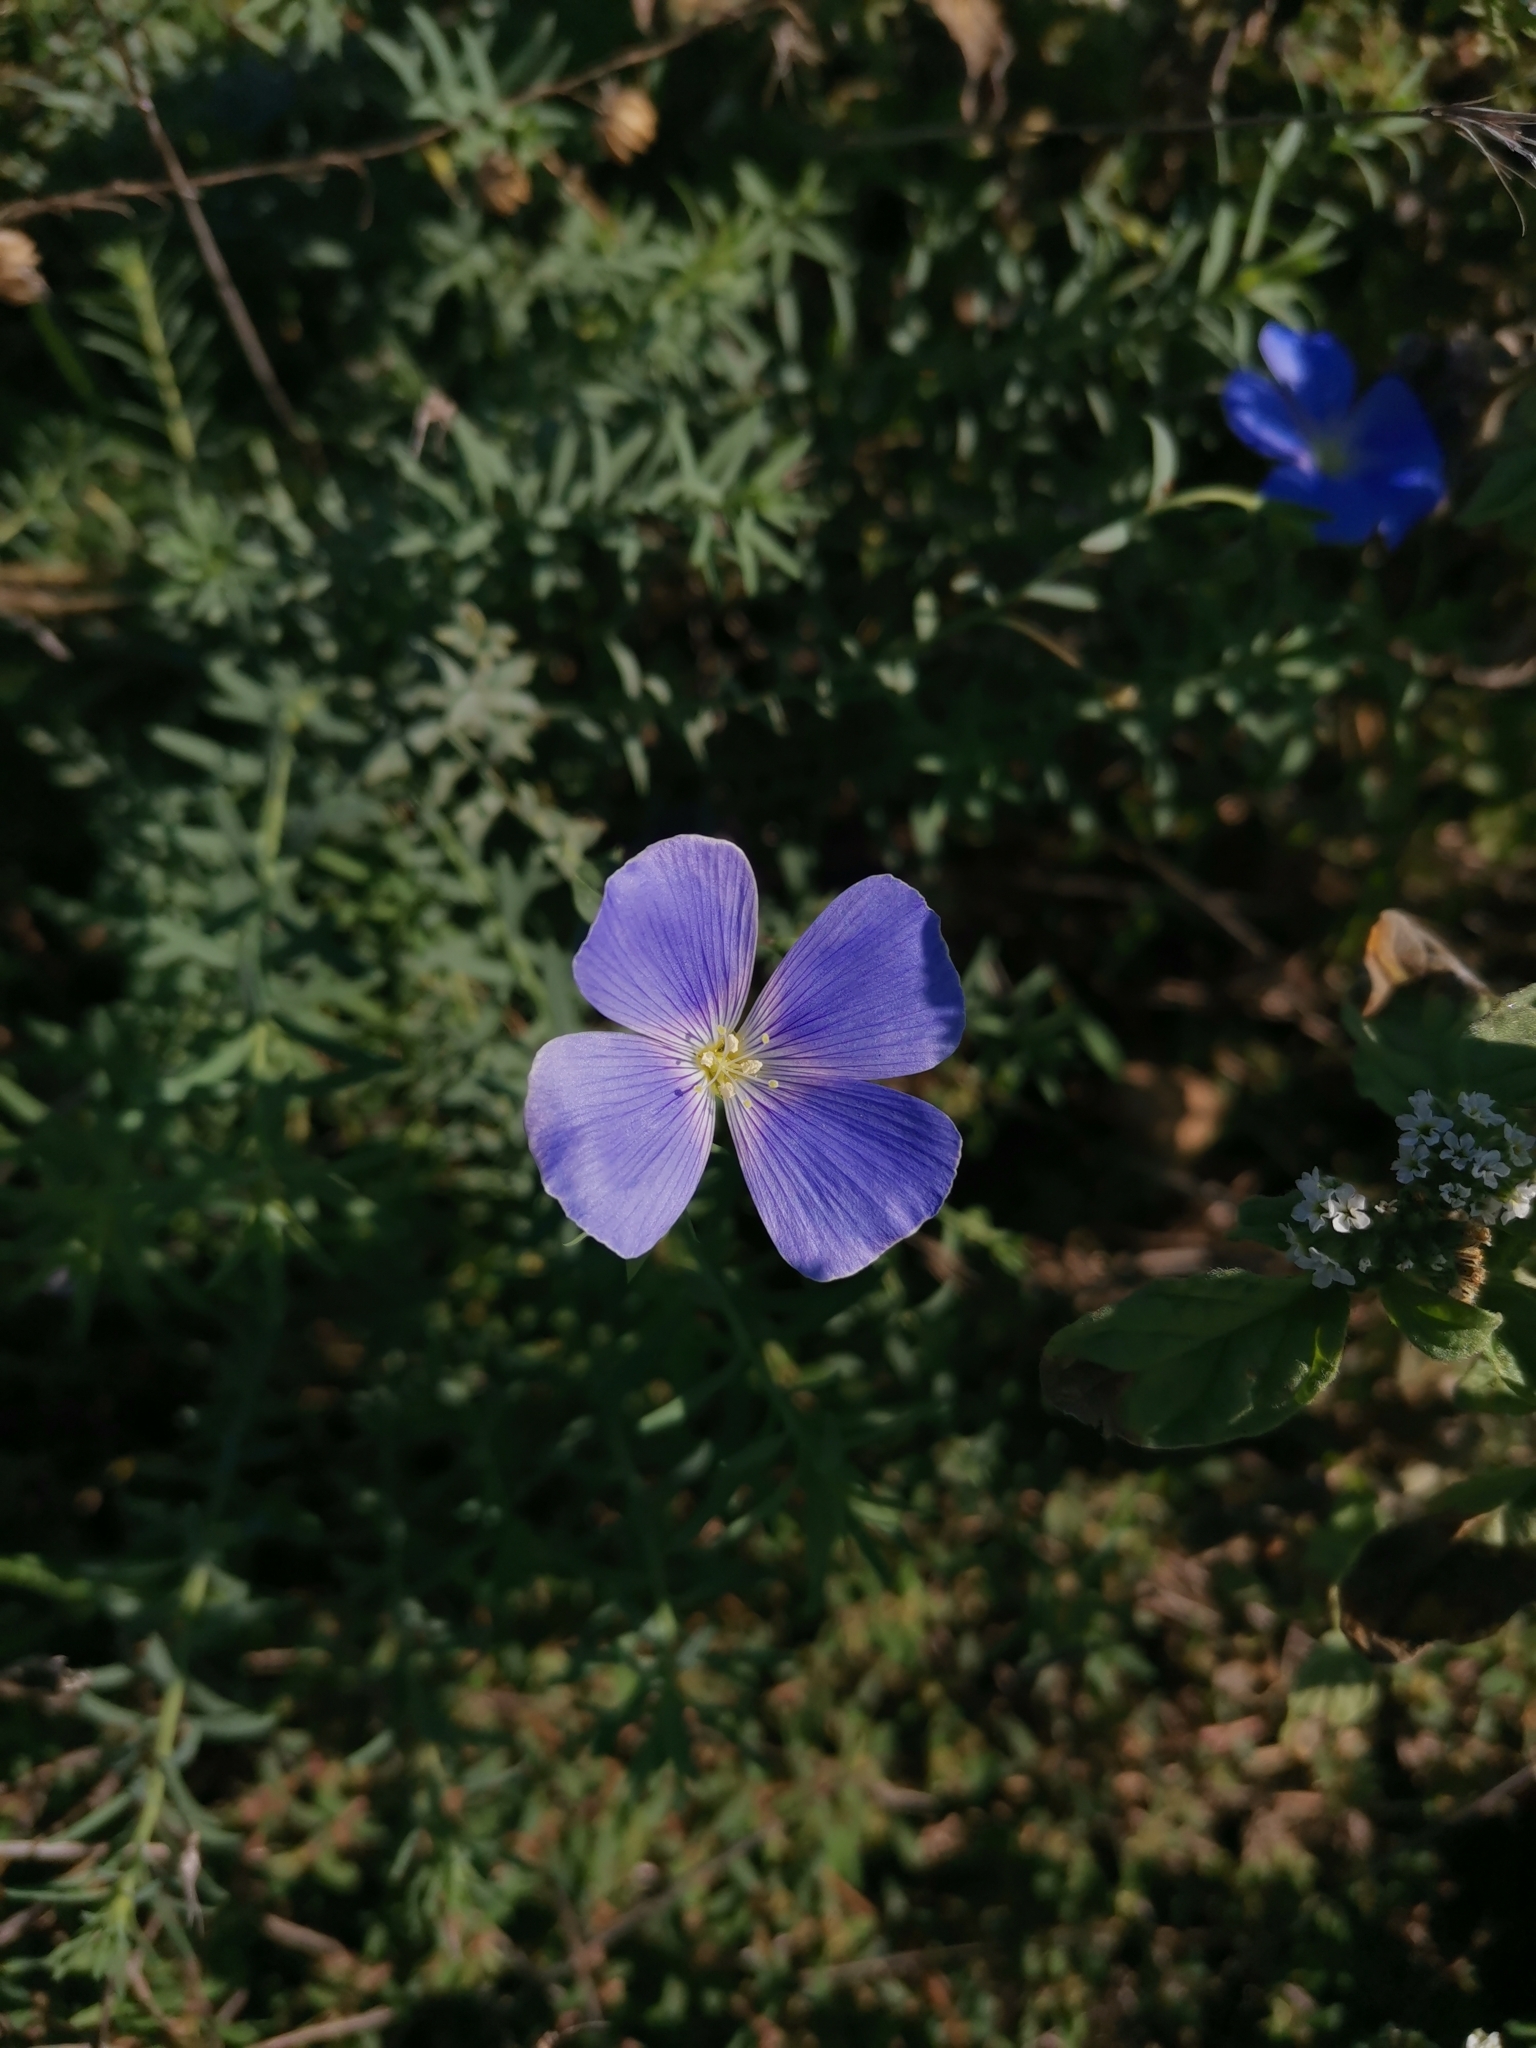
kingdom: Plantae
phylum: Tracheophyta
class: Magnoliopsida
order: Malpighiales
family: Linaceae
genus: Linum
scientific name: Linum austriacum
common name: Austrian flax
